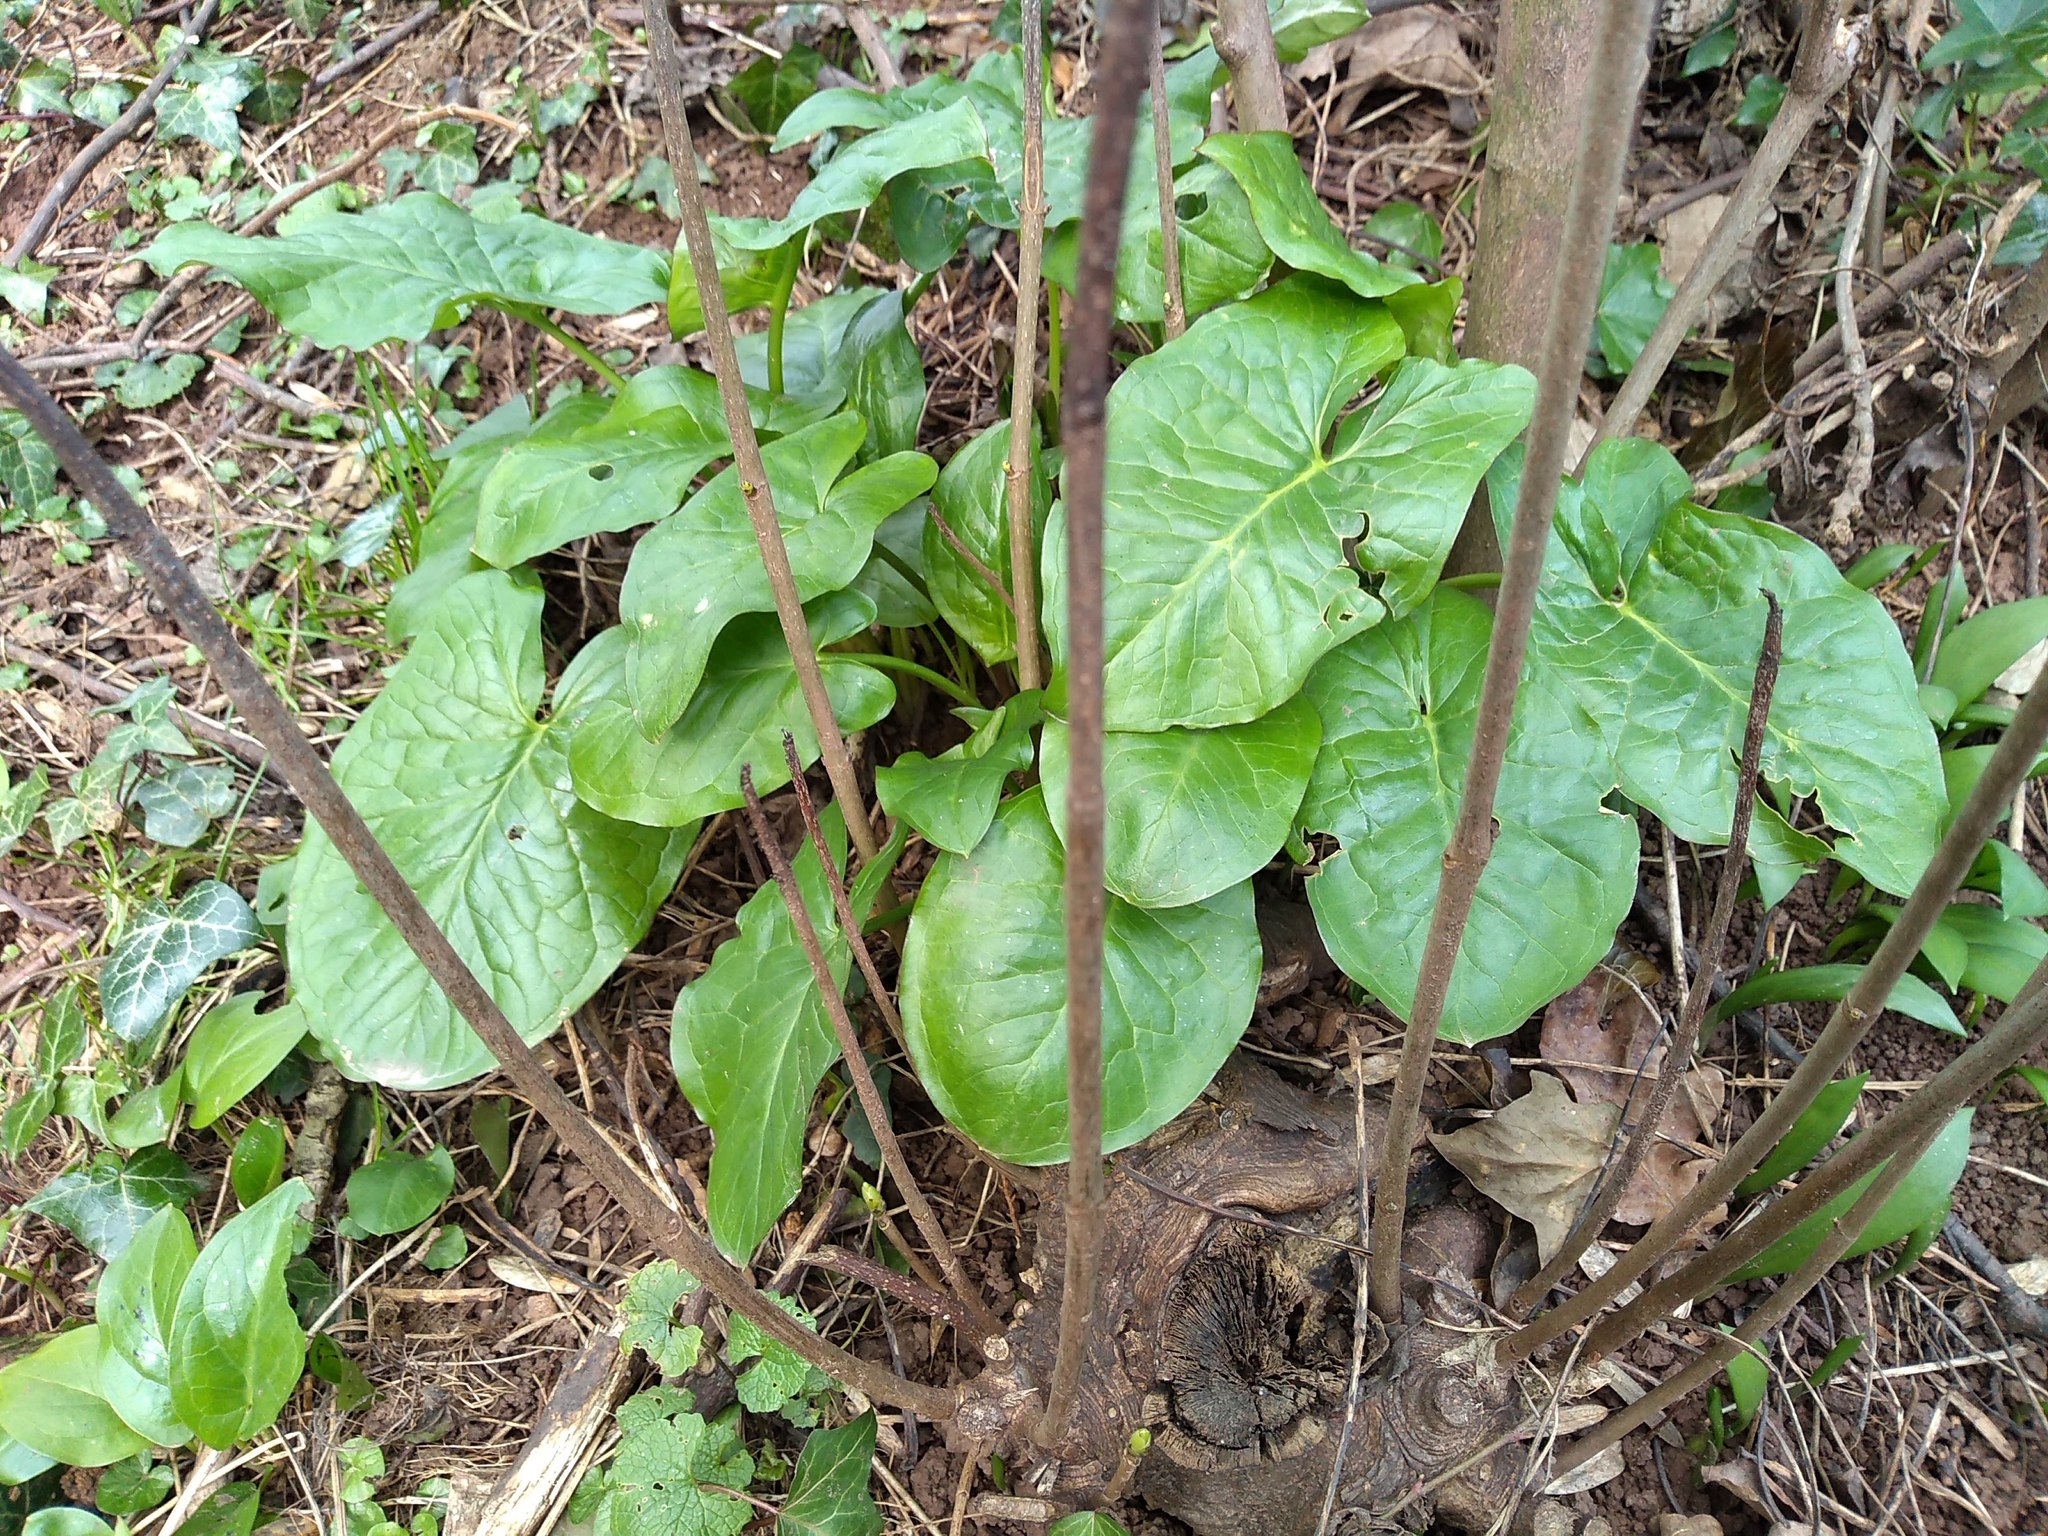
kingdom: Plantae
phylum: Tracheophyta
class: Liliopsida
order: Alismatales
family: Araceae
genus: Arum
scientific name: Arum maculatum
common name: Lords-and-ladies
